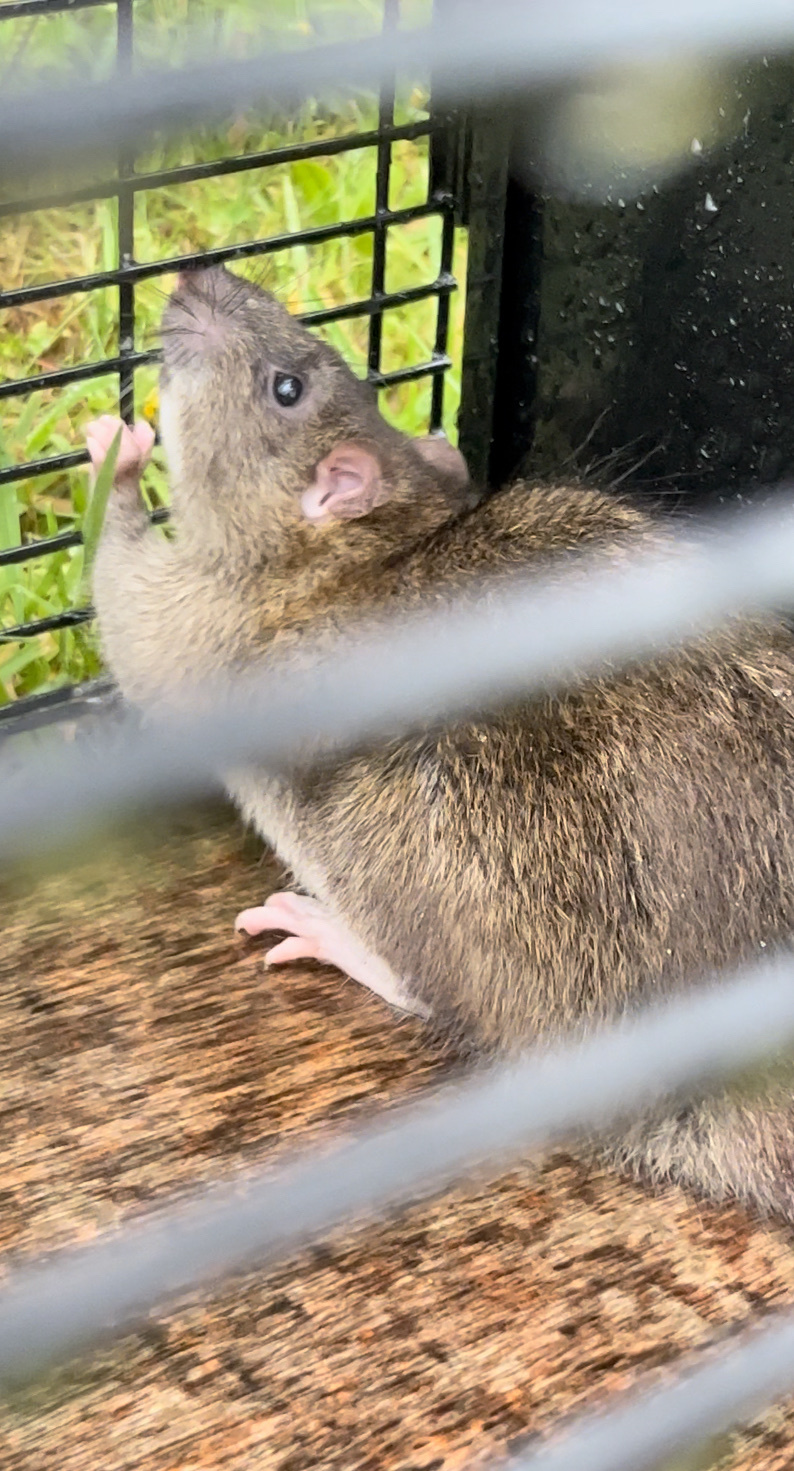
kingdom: Animalia
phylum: Chordata
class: Mammalia
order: Rodentia
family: Muridae
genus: Rattus
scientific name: Rattus norvegicus
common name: Brown rat
